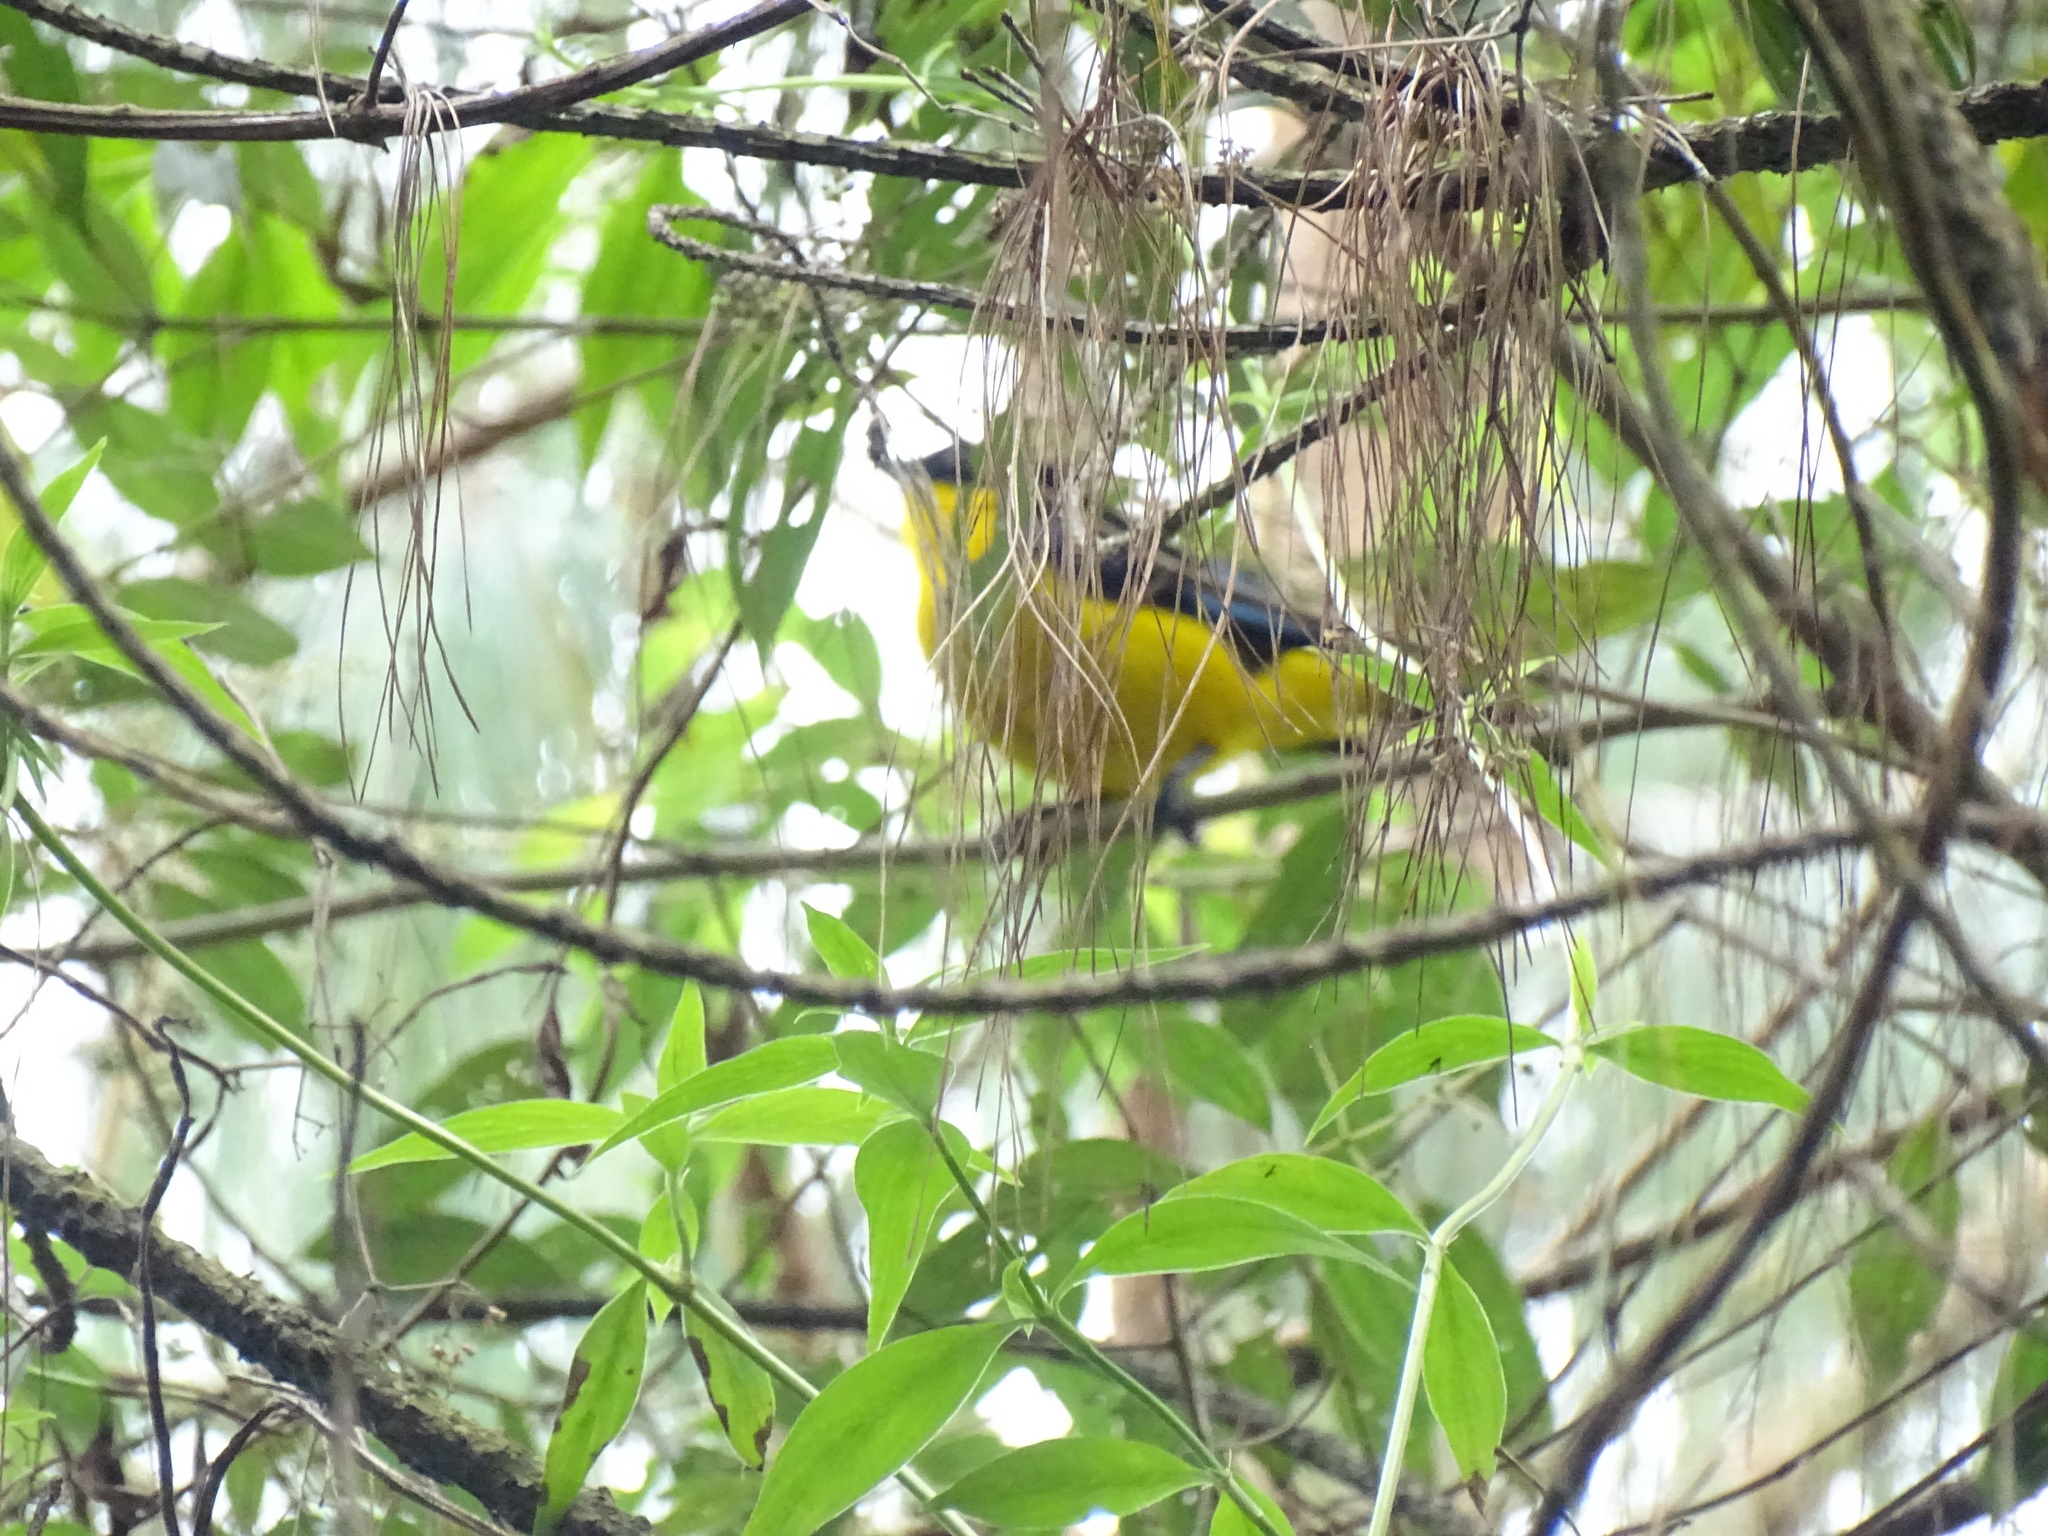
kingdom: Animalia
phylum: Chordata
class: Aves
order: Passeriformes
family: Thraupidae
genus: Anisognathus
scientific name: Anisognathus somptuosus
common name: Blue-winged mountain-tanager
